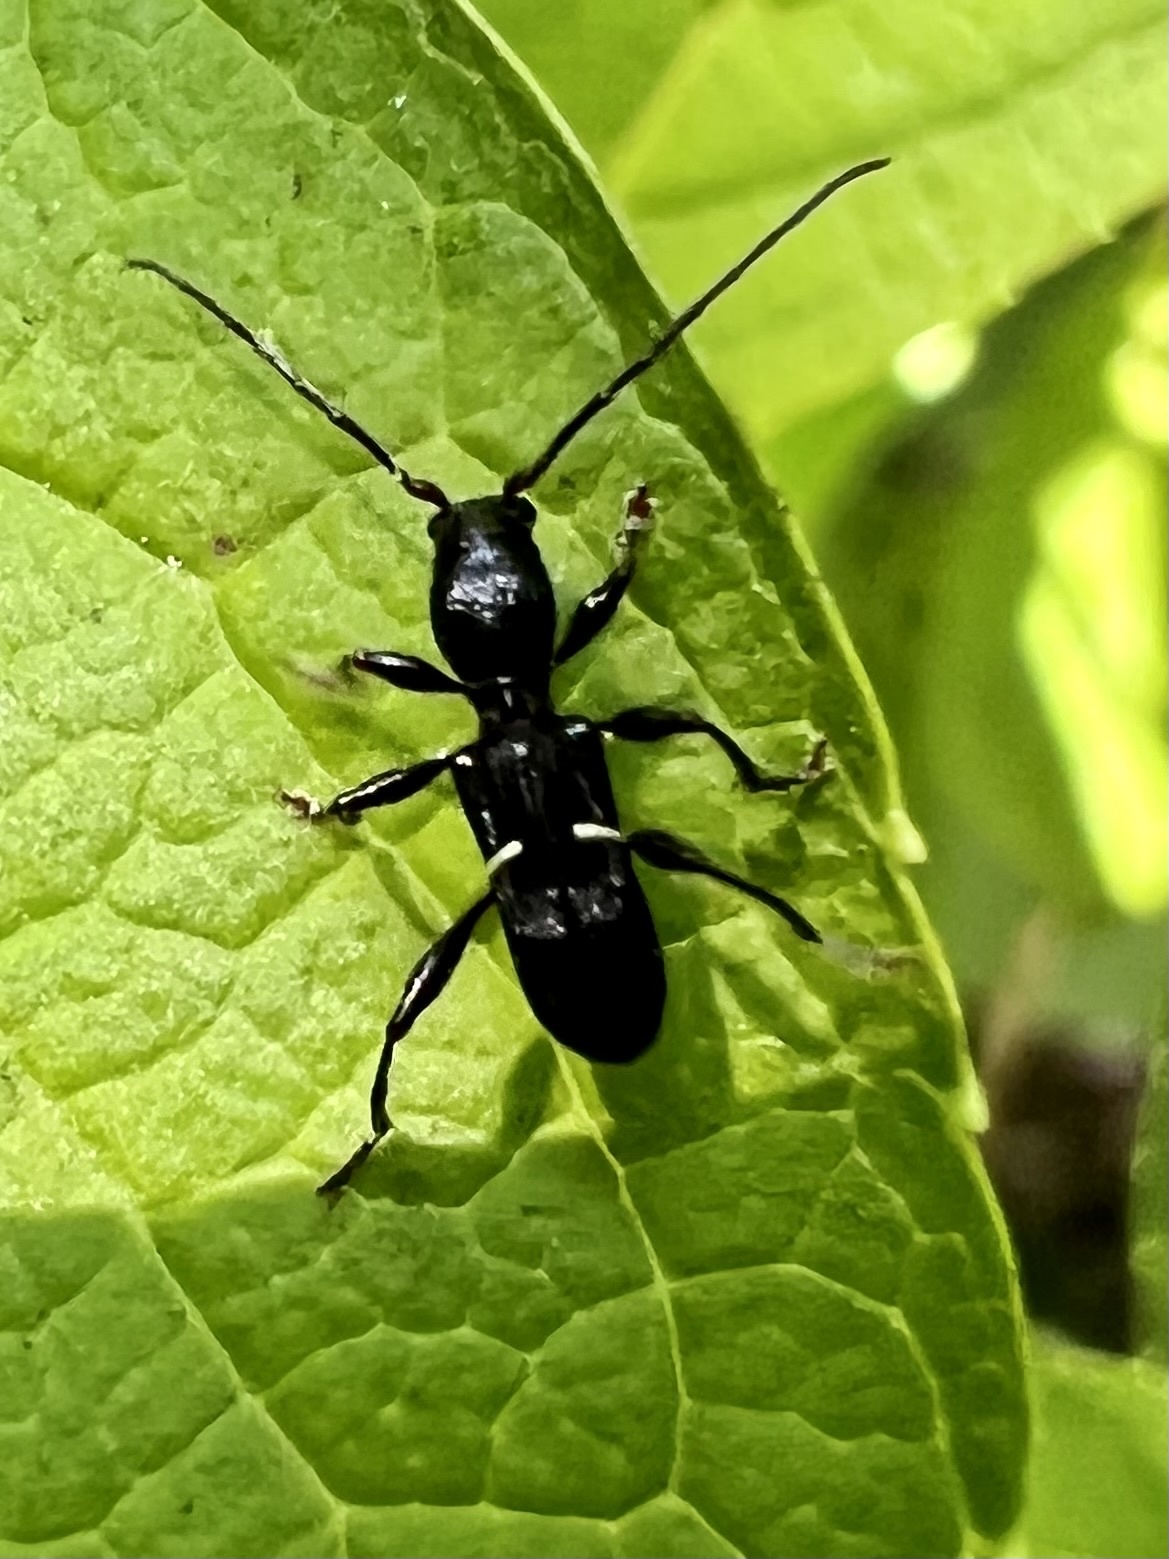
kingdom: Animalia
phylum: Arthropoda
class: Insecta
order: Coleoptera
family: Cerambycidae
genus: Euderces
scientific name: Euderces picipes
